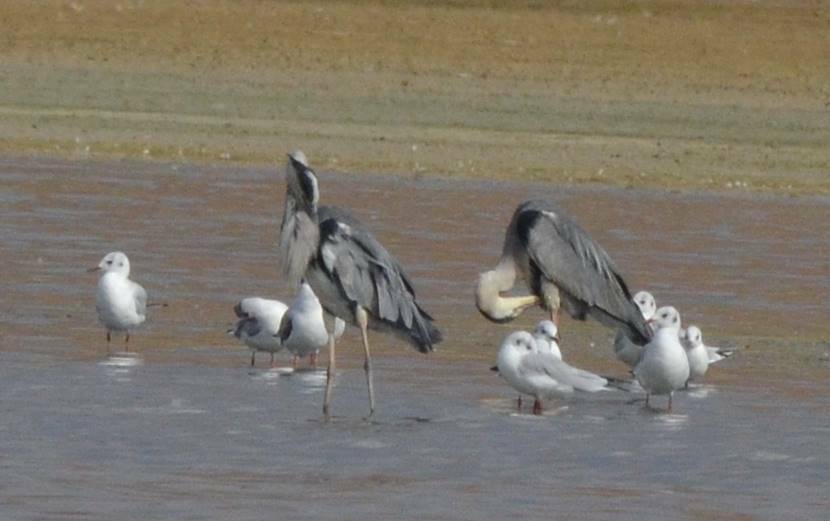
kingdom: Animalia
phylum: Chordata
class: Aves
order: Pelecaniformes
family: Ardeidae
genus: Ardea
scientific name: Ardea cinerea
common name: Grey heron
